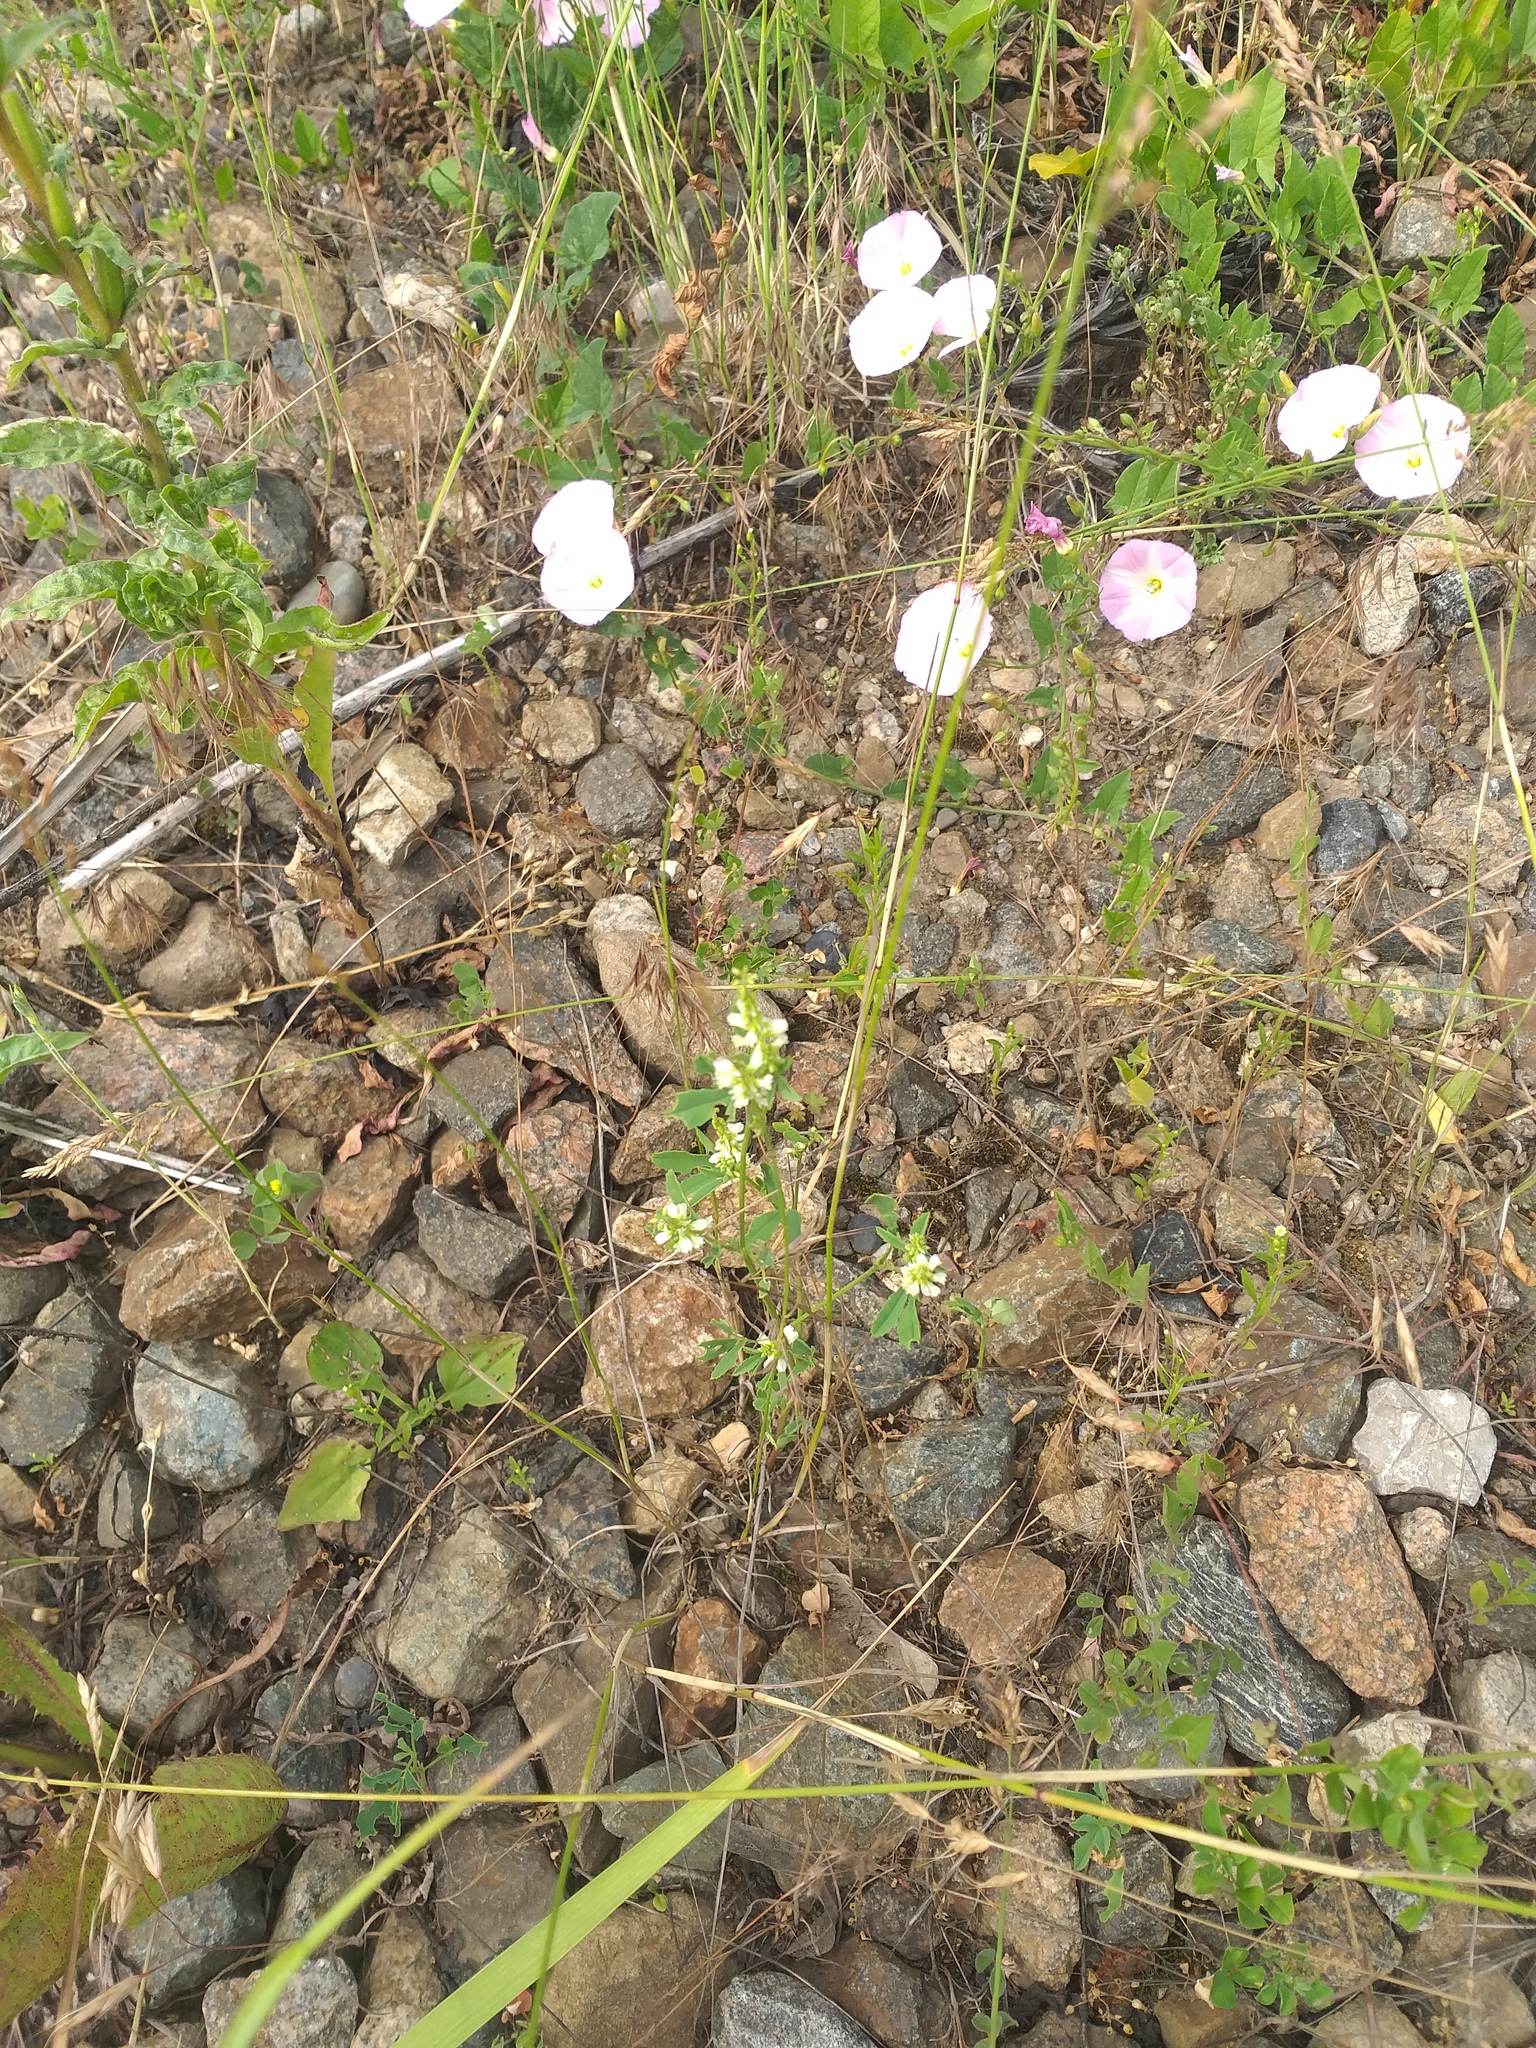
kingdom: Plantae
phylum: Tracheophyta
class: Magnoliopsida
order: Fabales
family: Fabaceae
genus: Melilotus
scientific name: Melilotus albus
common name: White melilot
